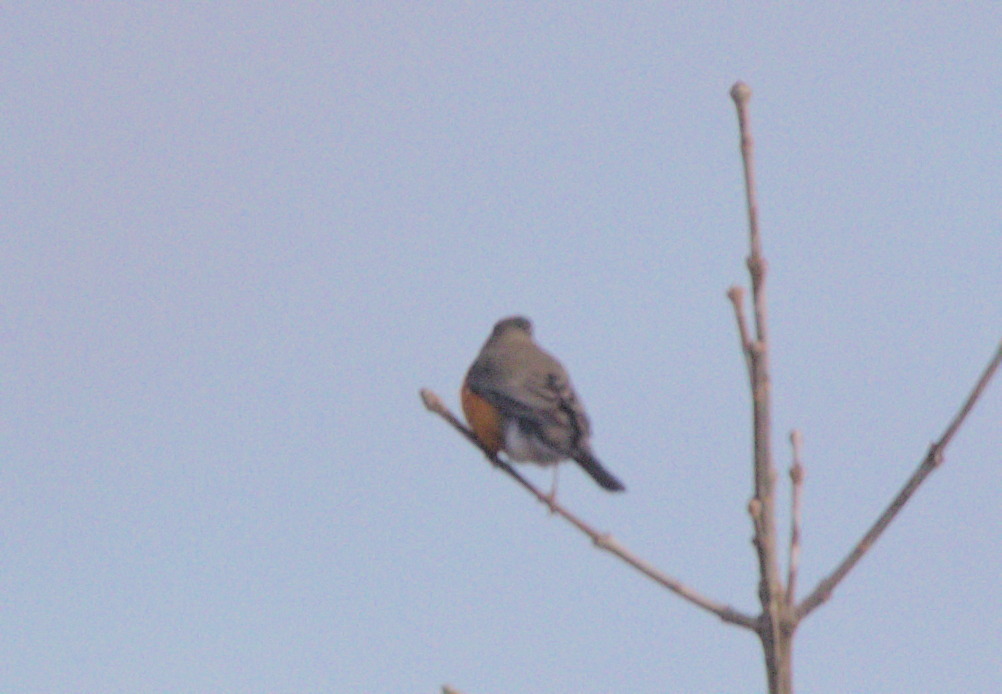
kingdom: Animalia
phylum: Chordata
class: Aves
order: Passeriformes
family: Turdidae
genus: Turdus
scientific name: Turdus migratorius
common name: American robin
